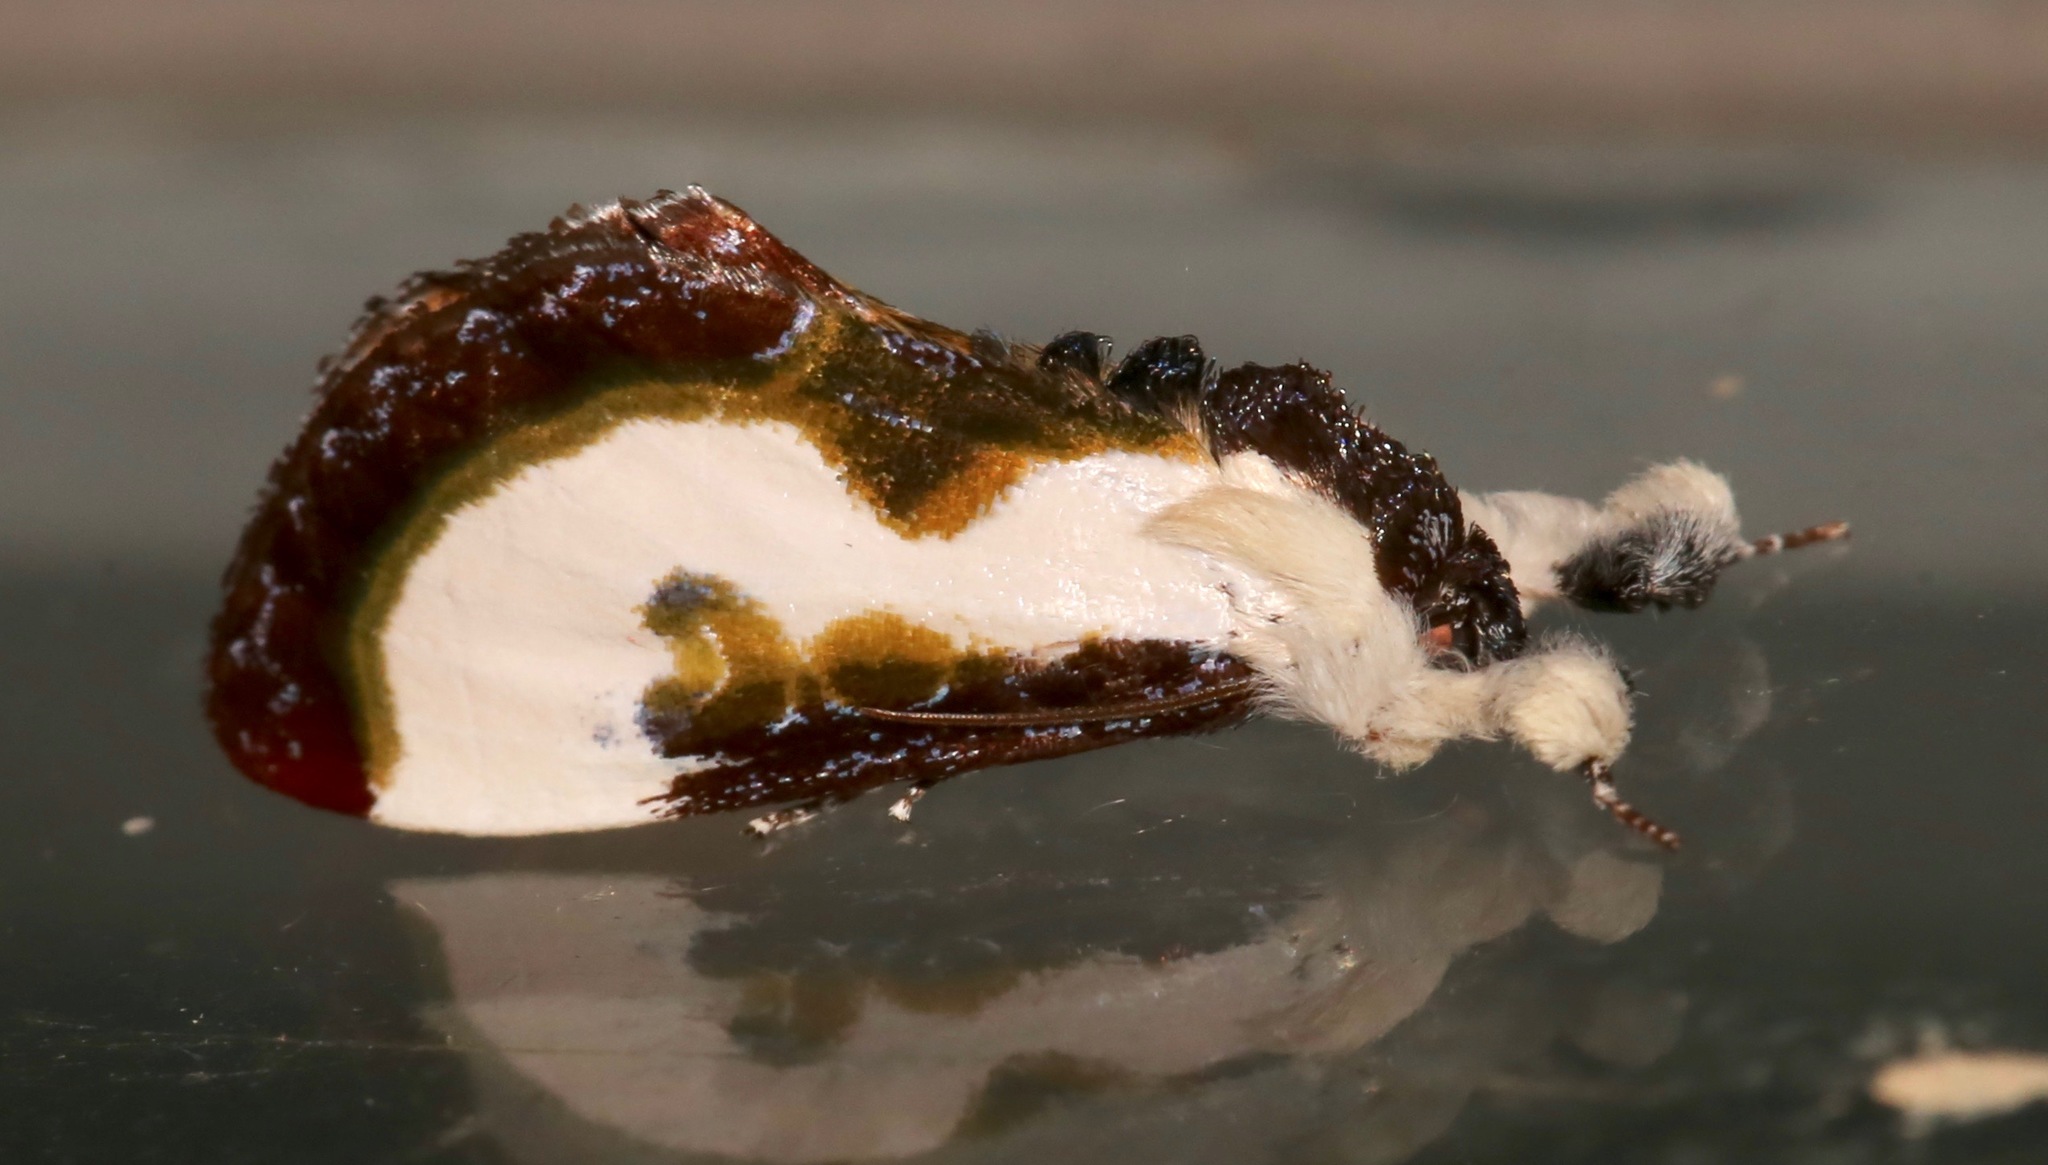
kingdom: Animalia
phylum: Arthropoda
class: Insecta
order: Lepidoptera
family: Noctuidae
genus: Eudryas
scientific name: Eudryas grata
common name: Beautiful wood-nymph
